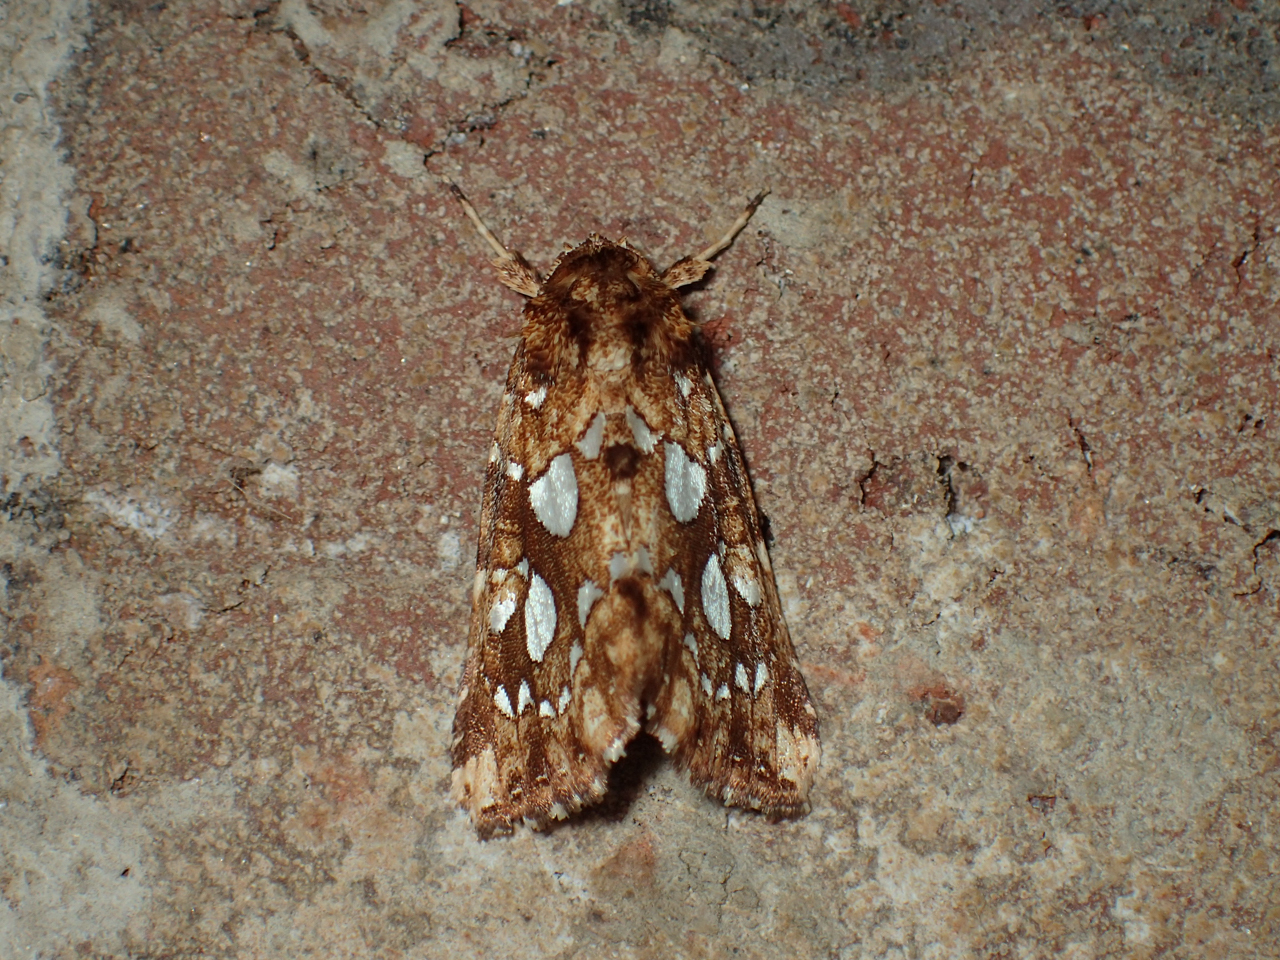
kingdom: Animalia
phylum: Arthropoda
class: Insecta
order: Lepidoptera
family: Noctuidae
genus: Callopistria
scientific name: Callopistria cordata
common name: Silver-spotted fern moth
